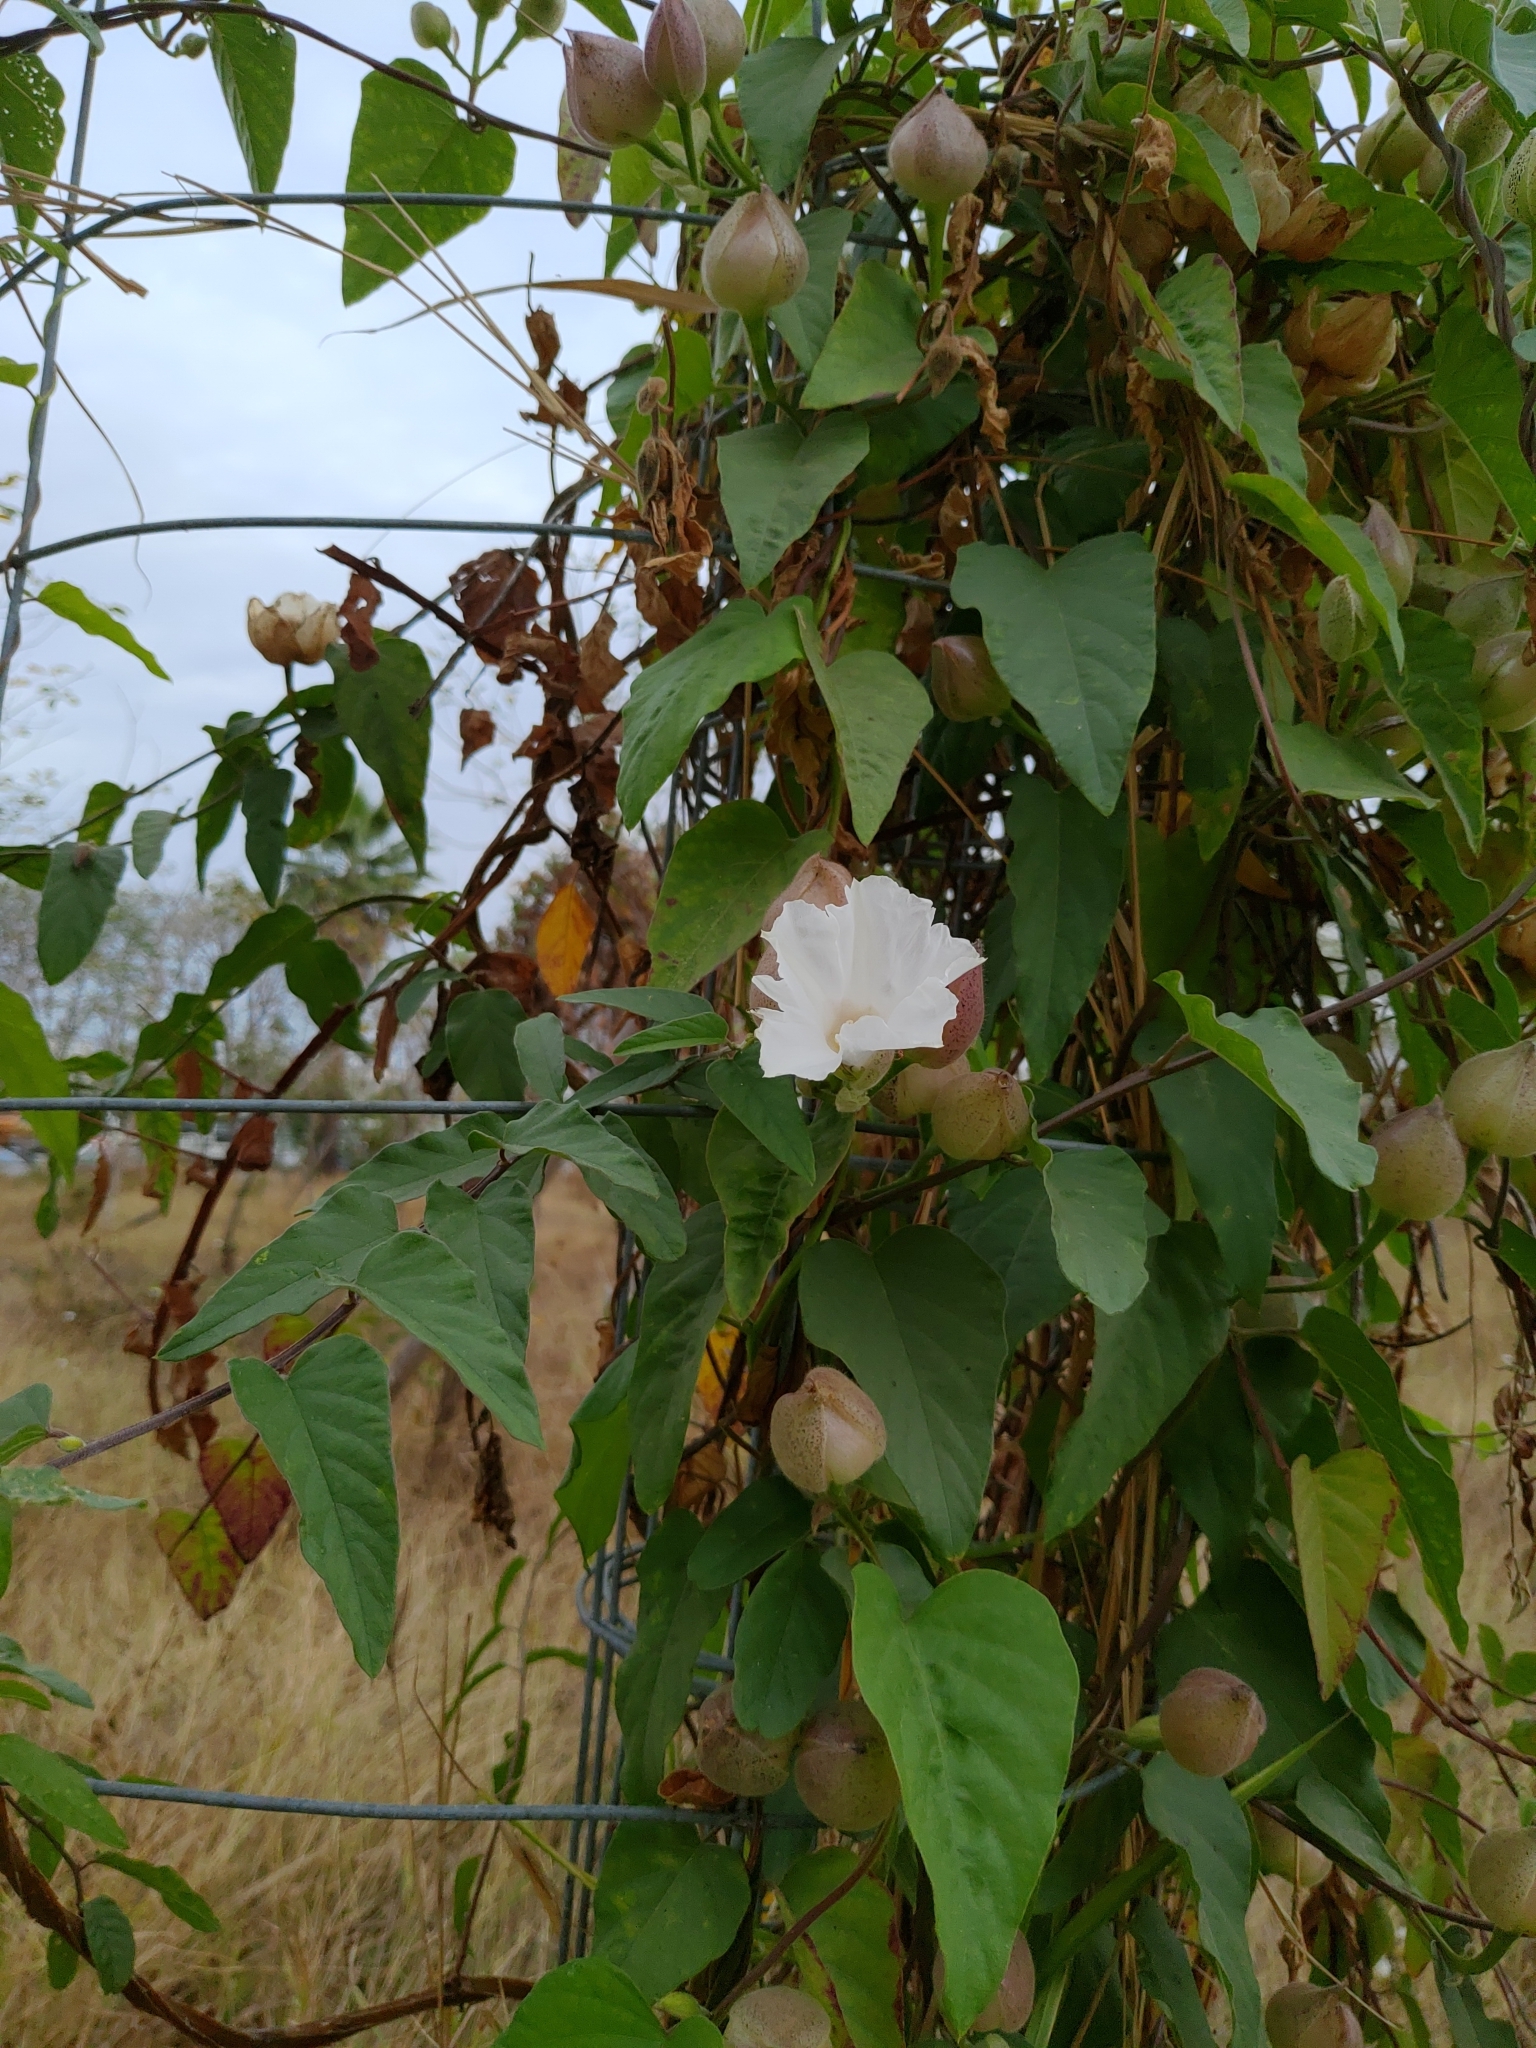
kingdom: Plantae
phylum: Tracheophyta
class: Magnoliopsida
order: Solanales
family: Convolvulaceae
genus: Operculina
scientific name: Operculina turpethum
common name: Transparent wood-rose
